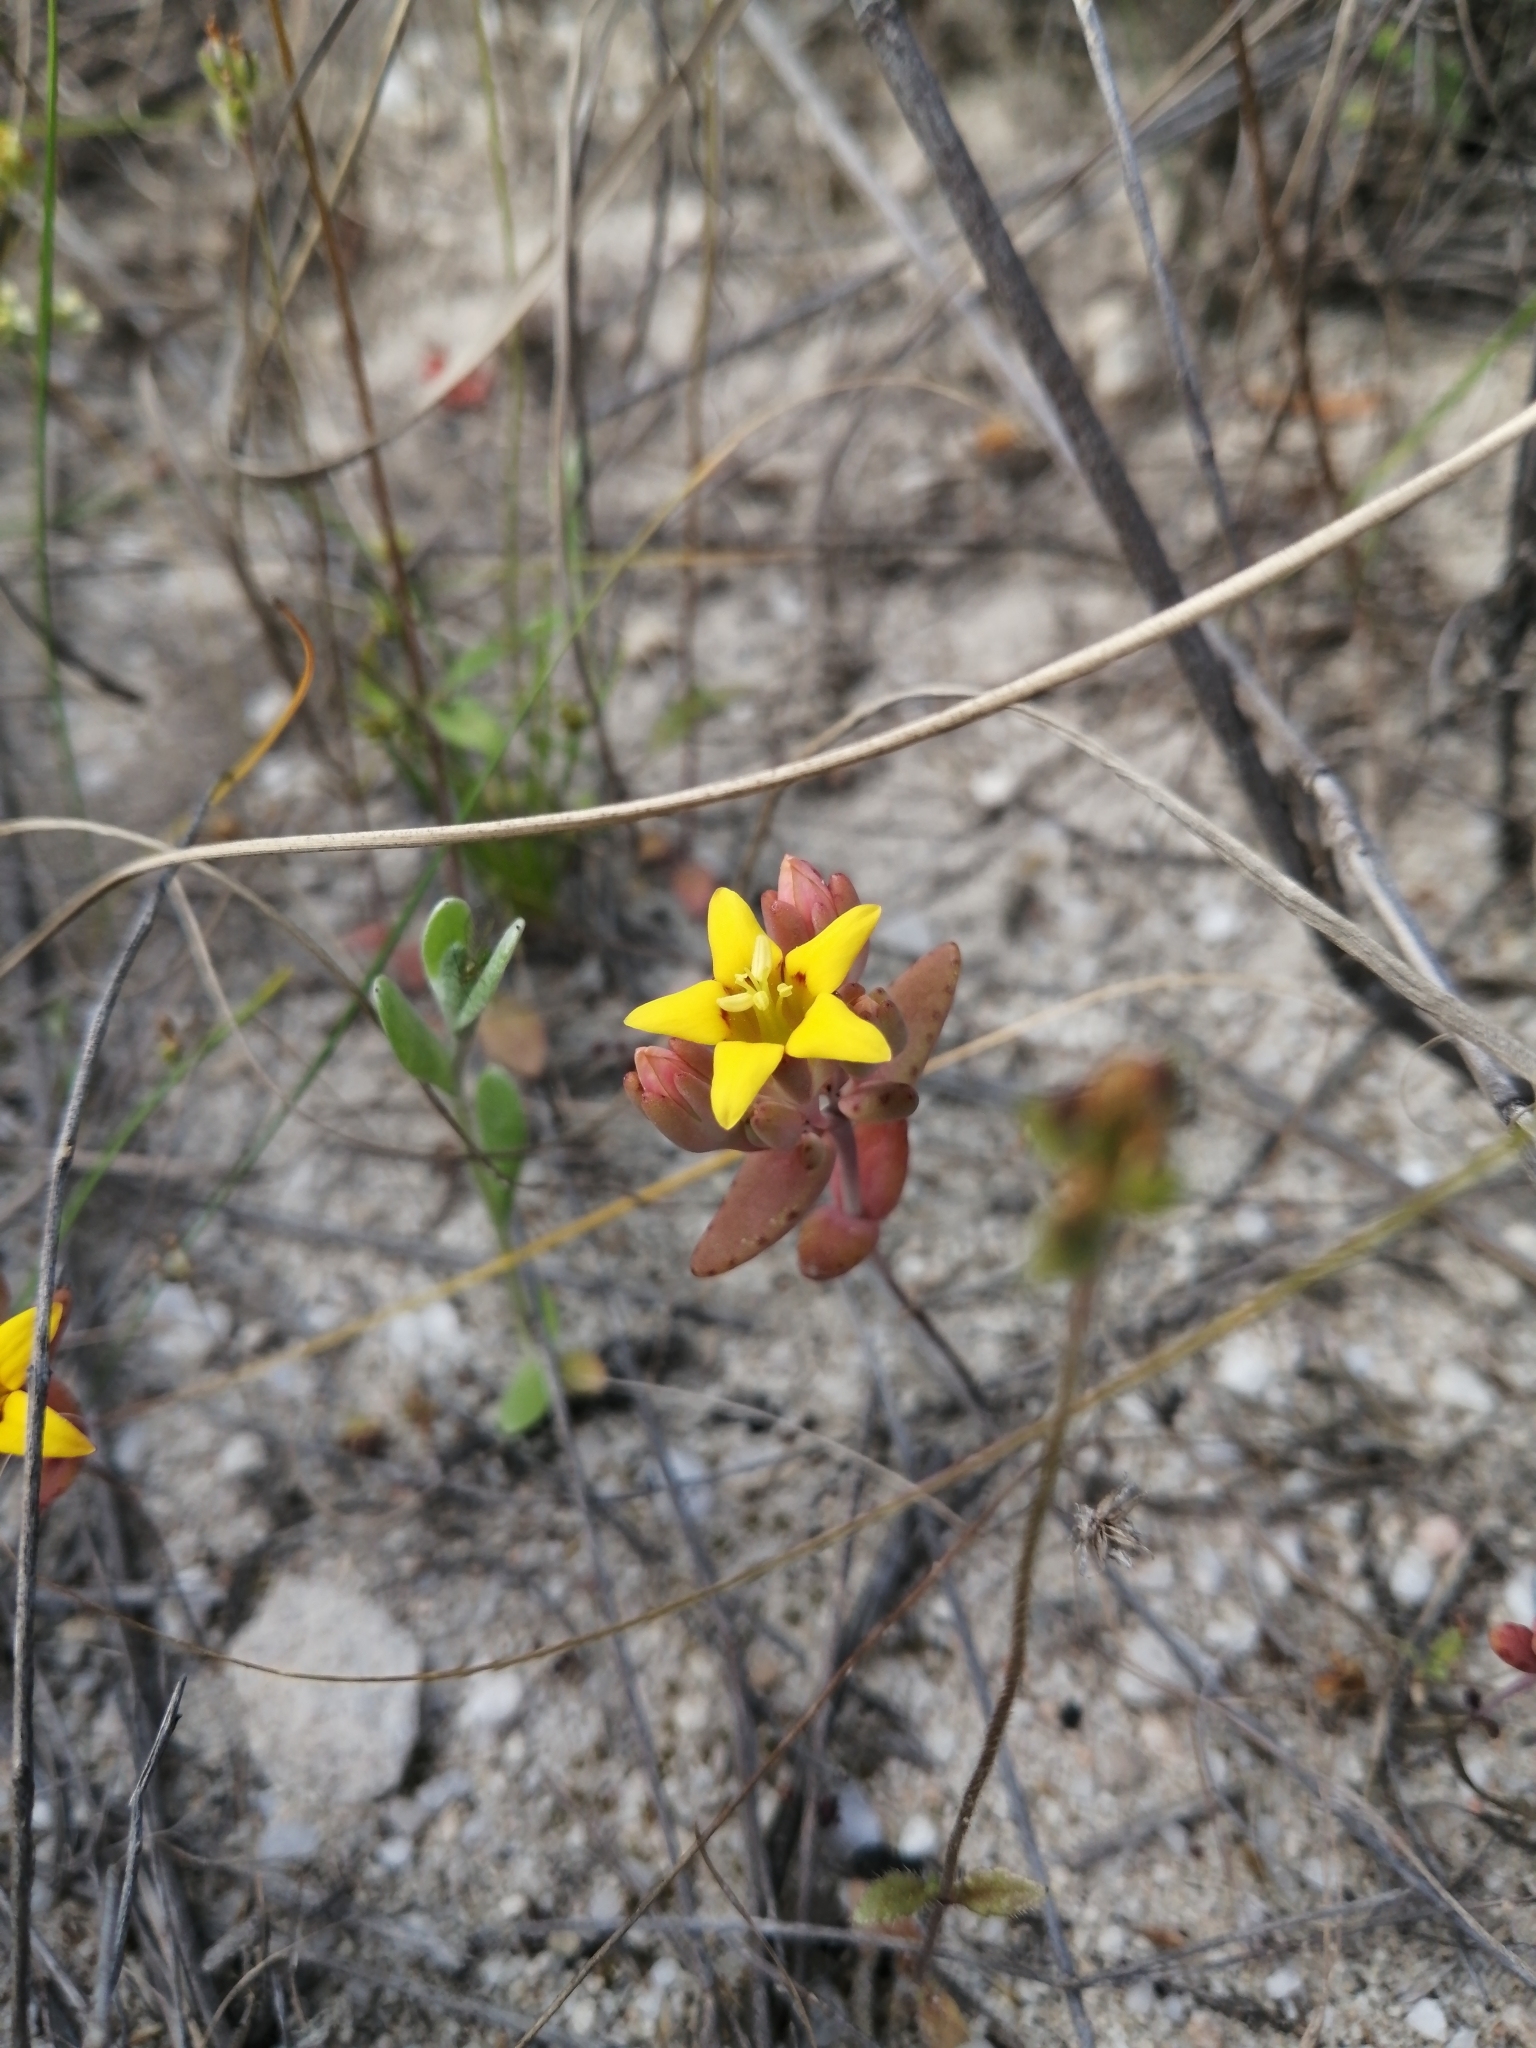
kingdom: Plantae
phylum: Tracheophyta
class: Magnoliopsida
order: Saxifragales
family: Crassulaceae
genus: Crassula
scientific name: Crassula dichotoma
